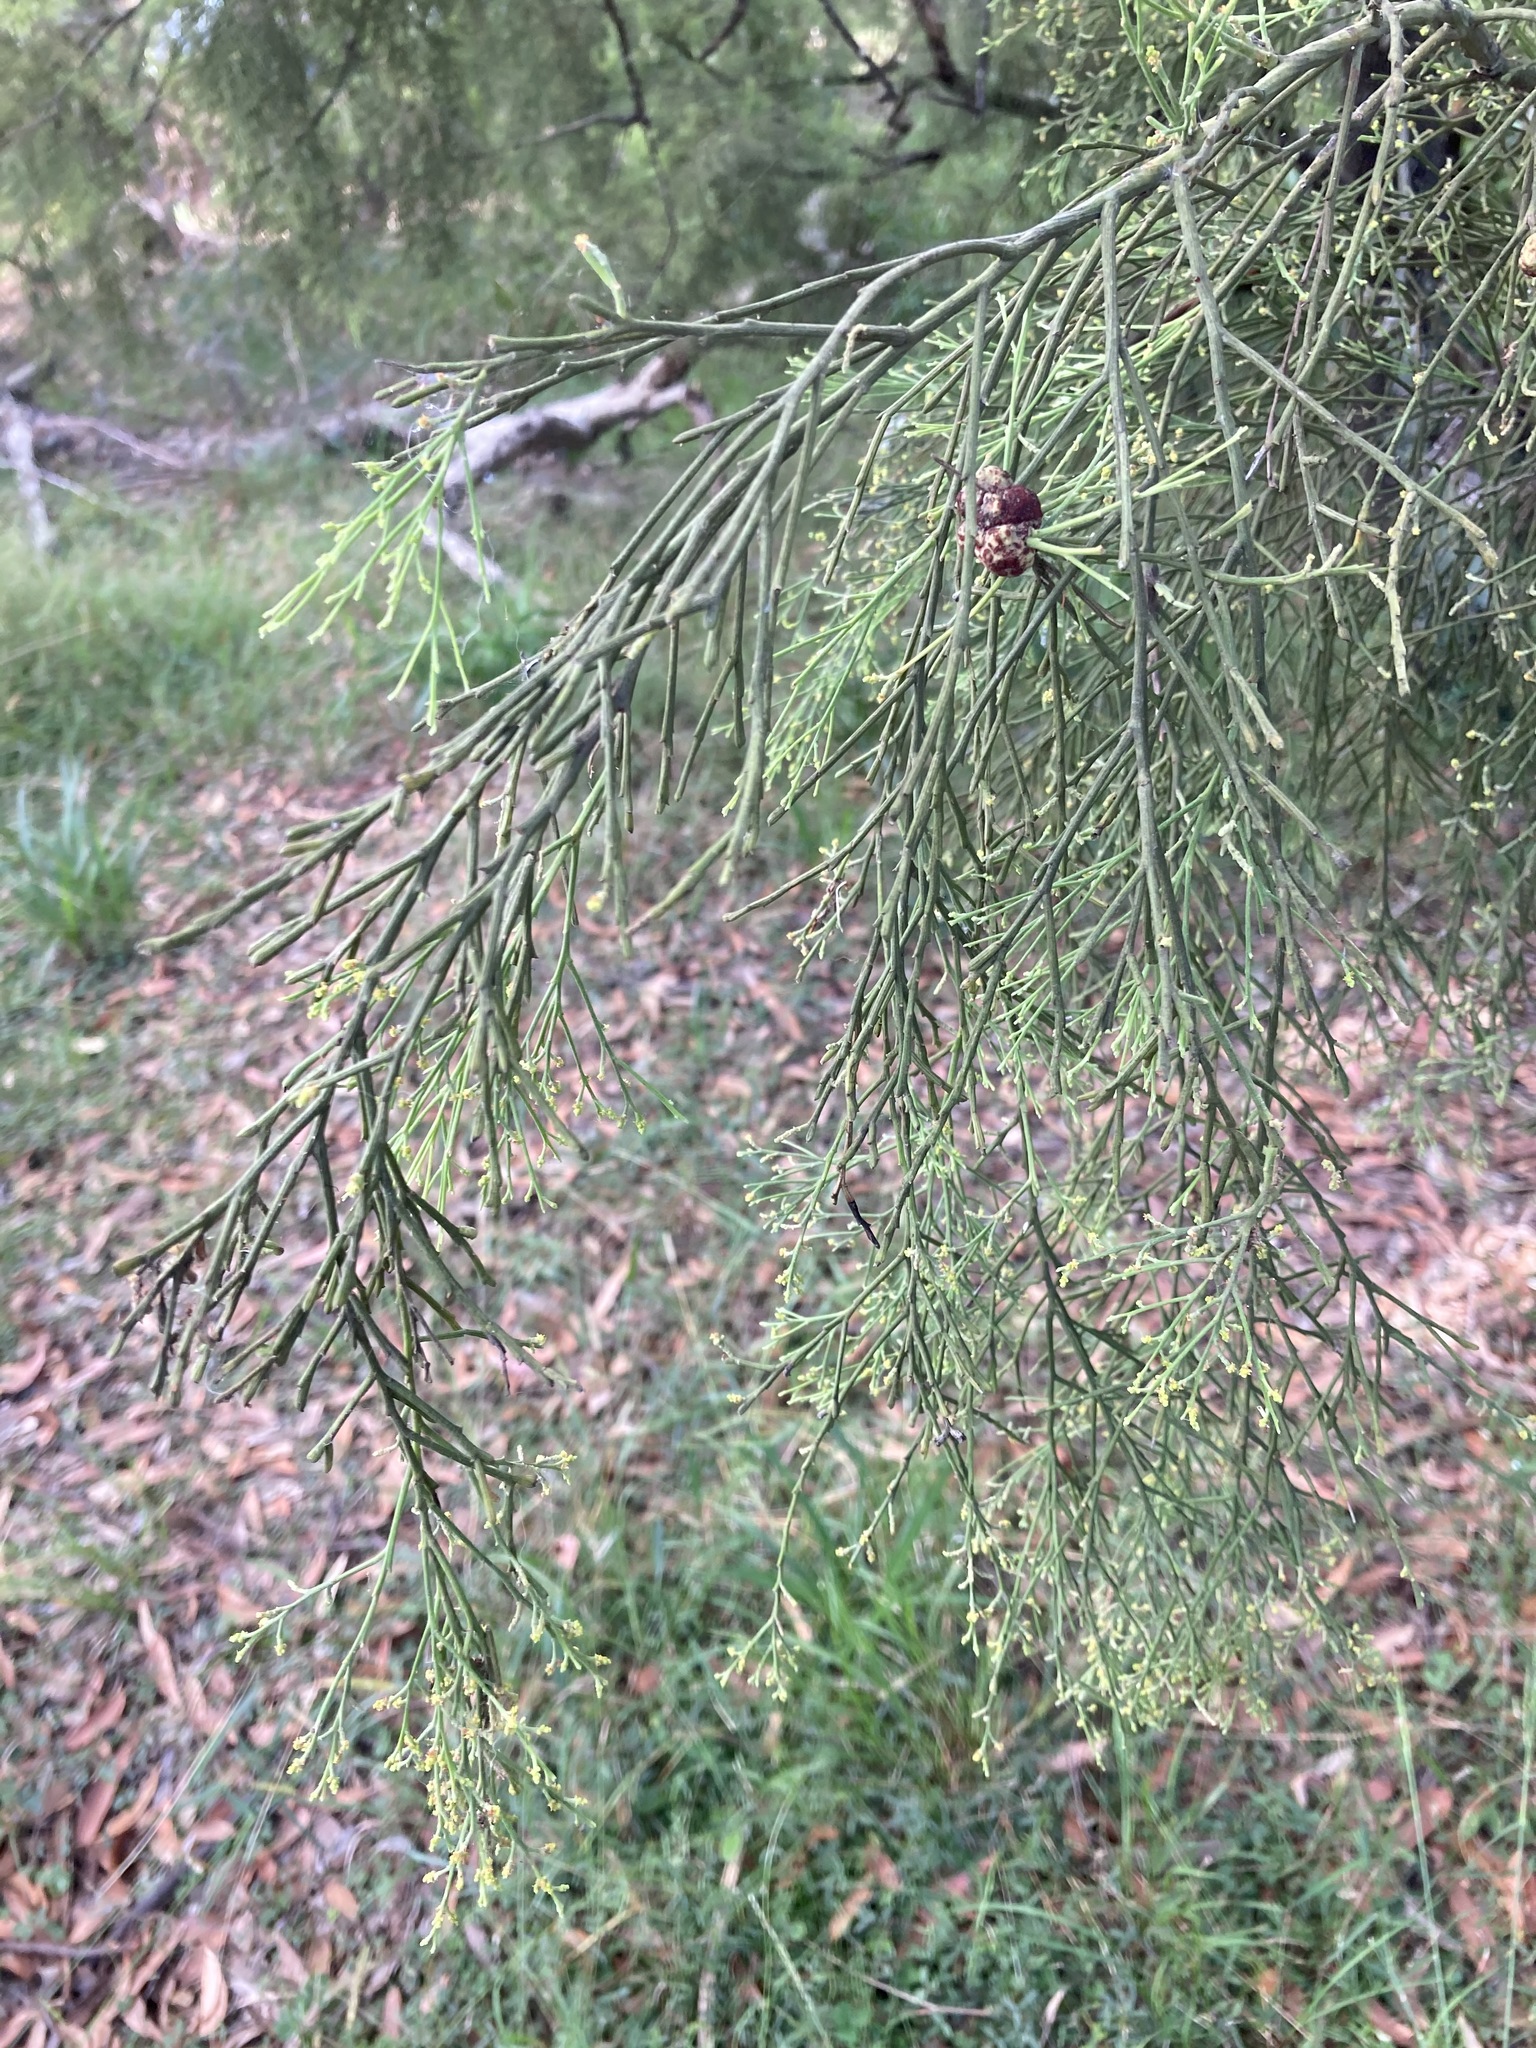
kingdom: Plantae
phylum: Tracheophyta
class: Magnoliopsida
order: Santalales
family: Santalaceae
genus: Exocarpos
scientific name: Exocarpos cupressiformis
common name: Cherry ballart
